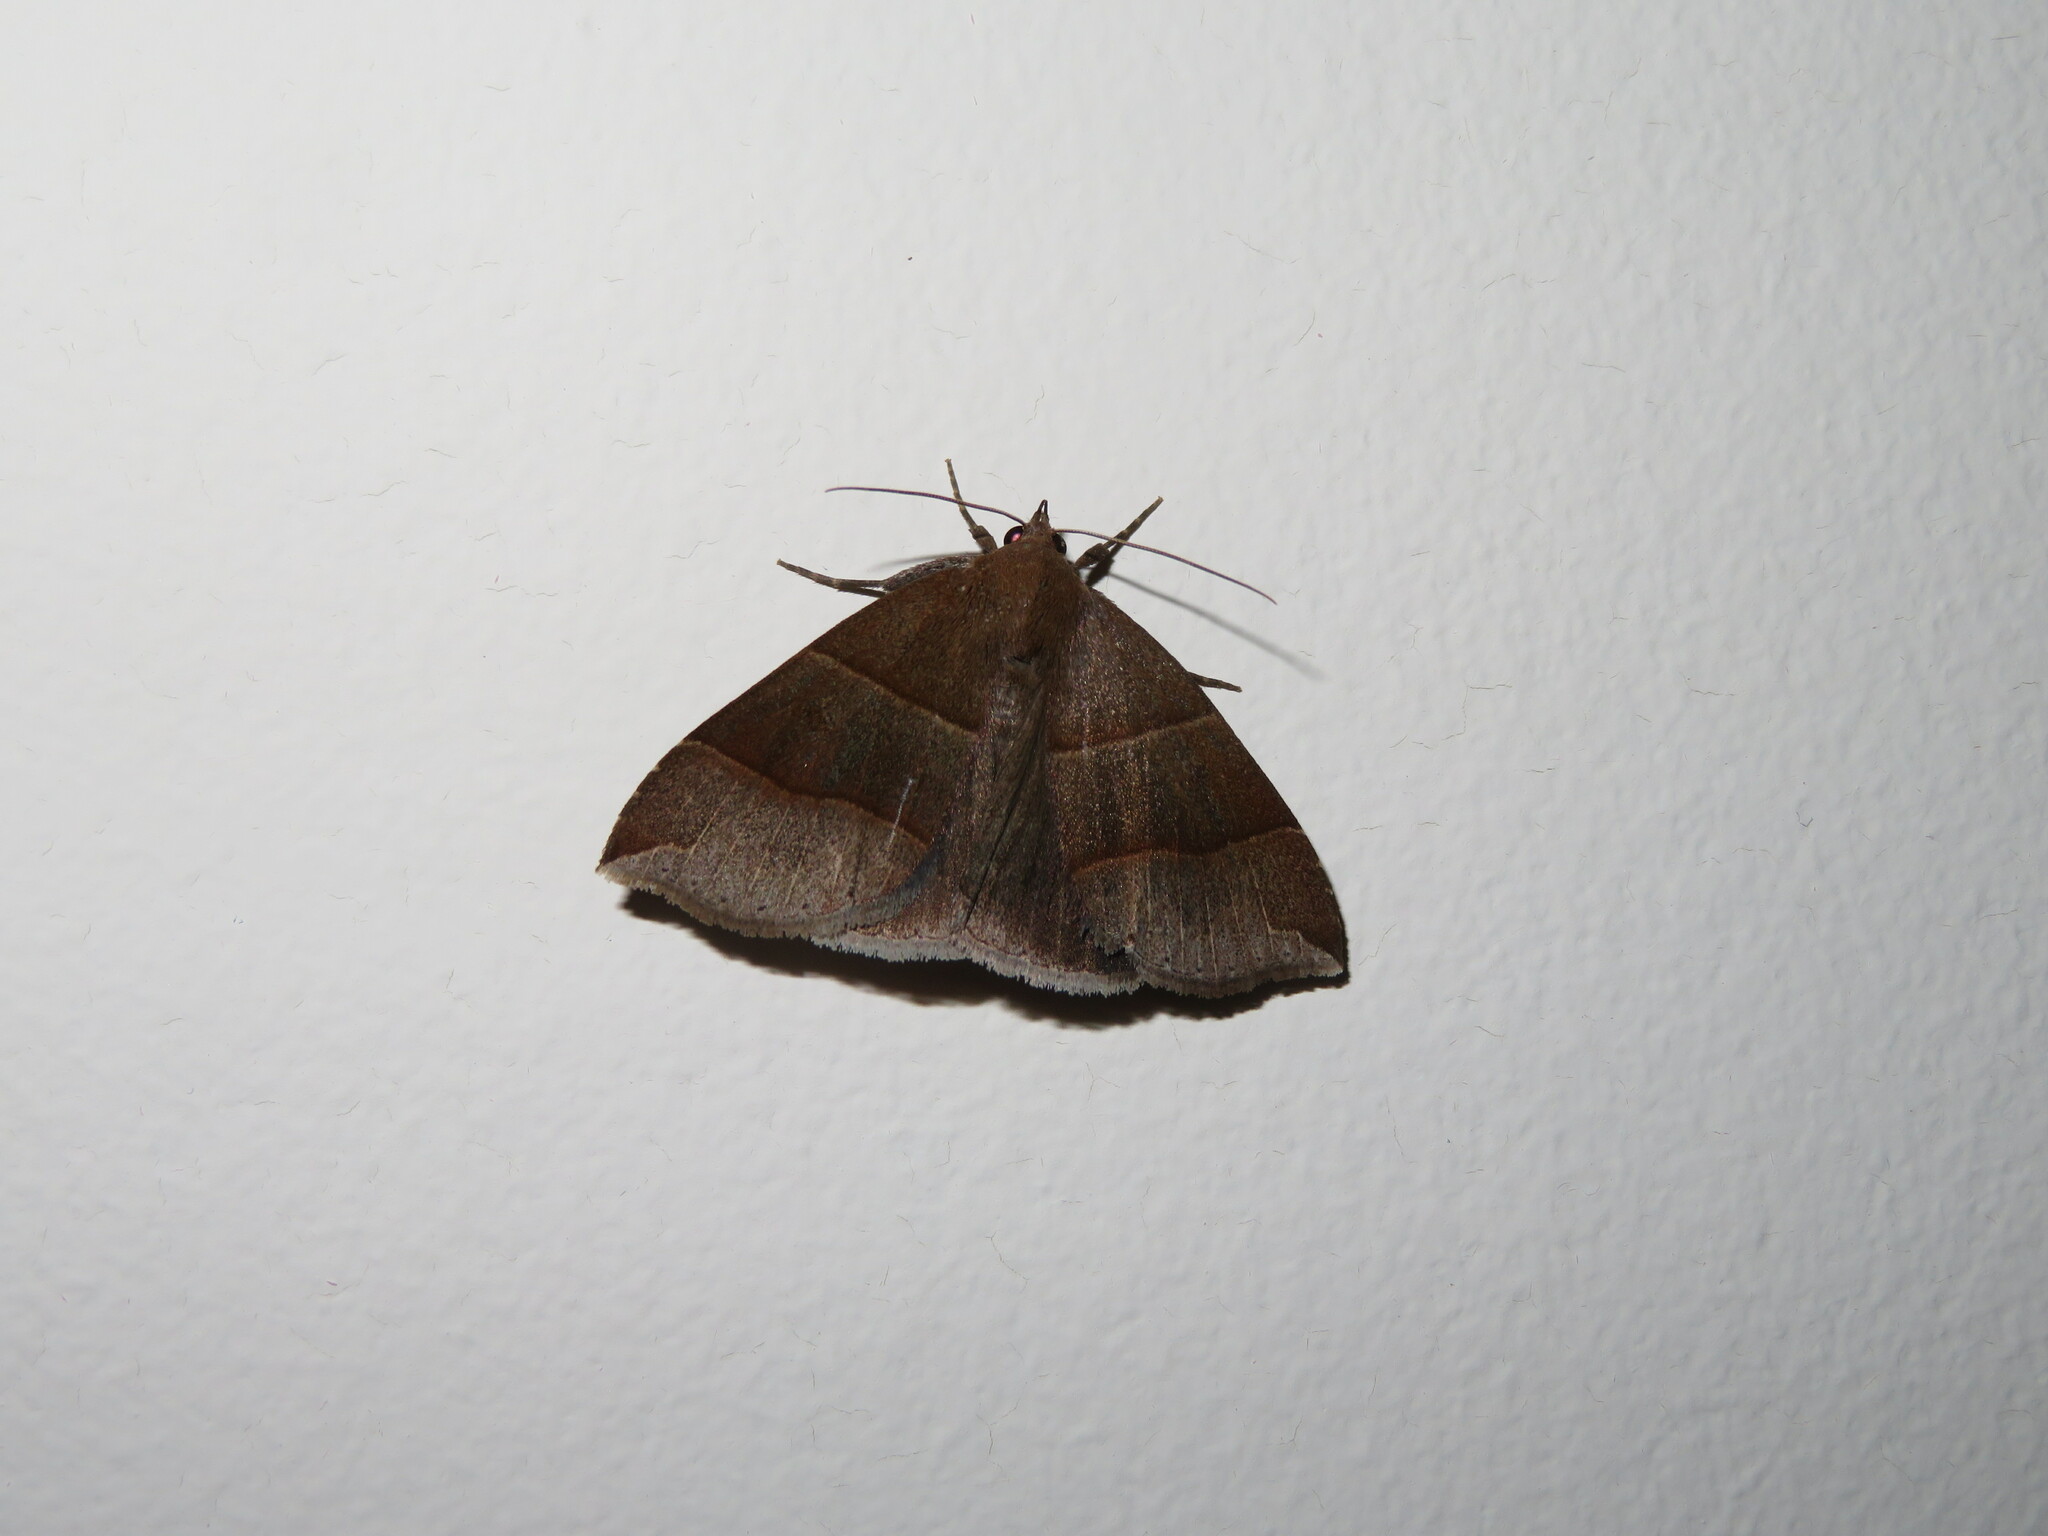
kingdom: Animalia
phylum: Arthropoda
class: Insecta
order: Lepidoptera
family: Erebidae
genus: Parallelia
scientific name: Parallelia bistriaris
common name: Maple looper moth
